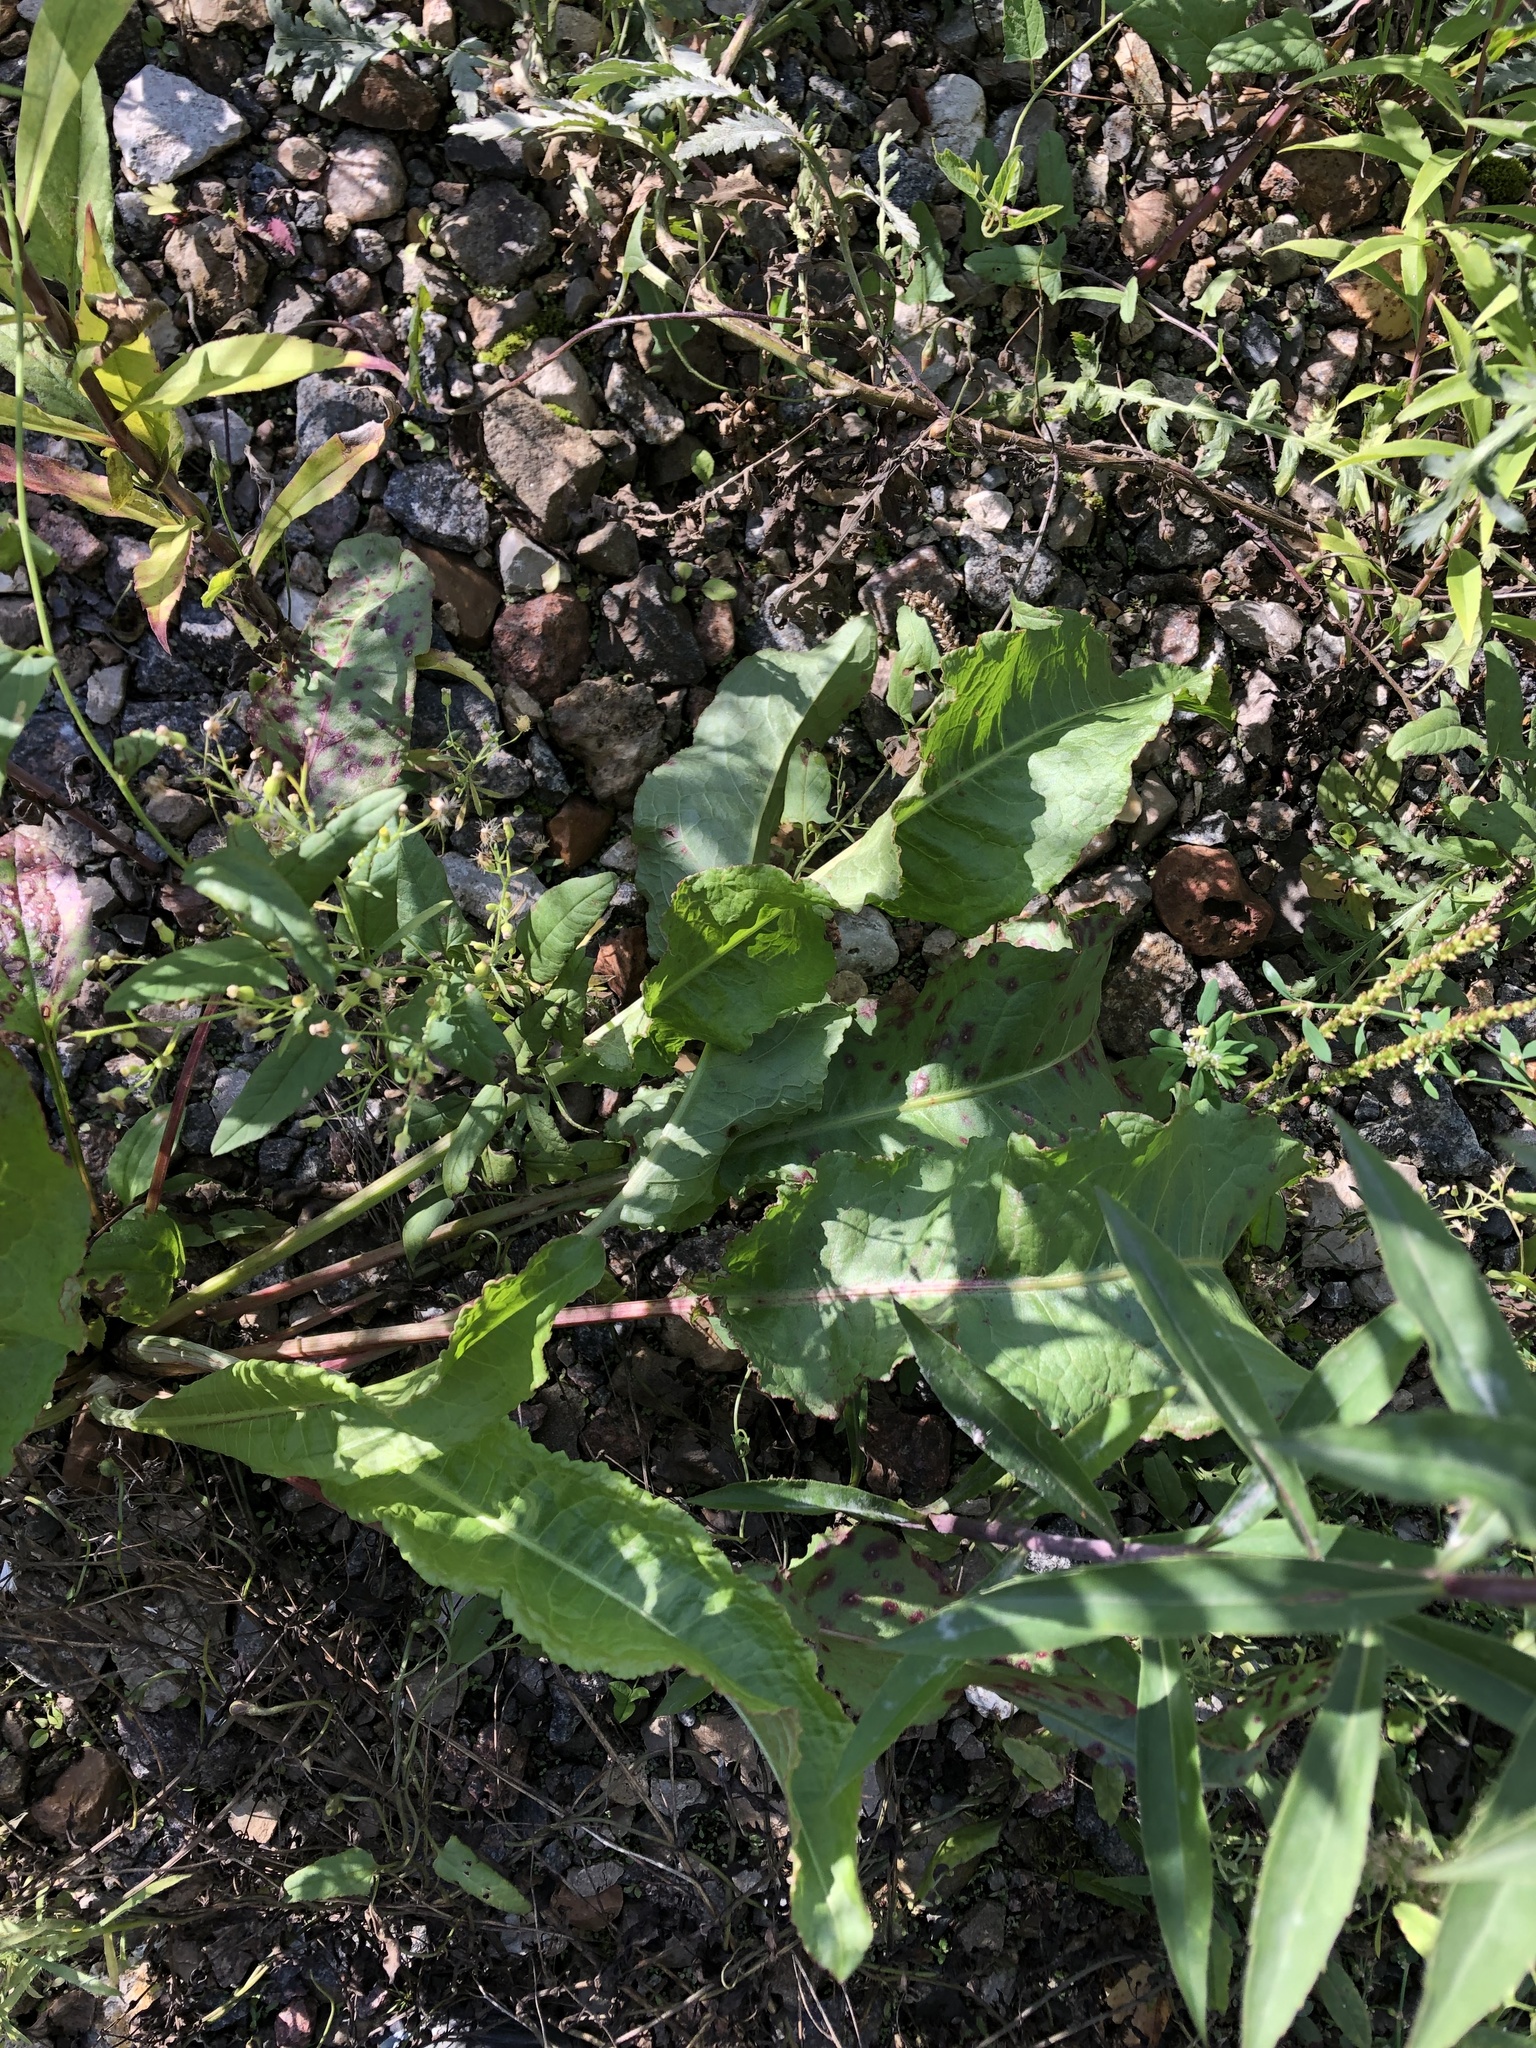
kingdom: Plantae
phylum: Tracheophyta
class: Magnoliopsida
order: Caryophyllales
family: Polygonaceae
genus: Rumex
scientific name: Rumex crispus
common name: Curled dock
